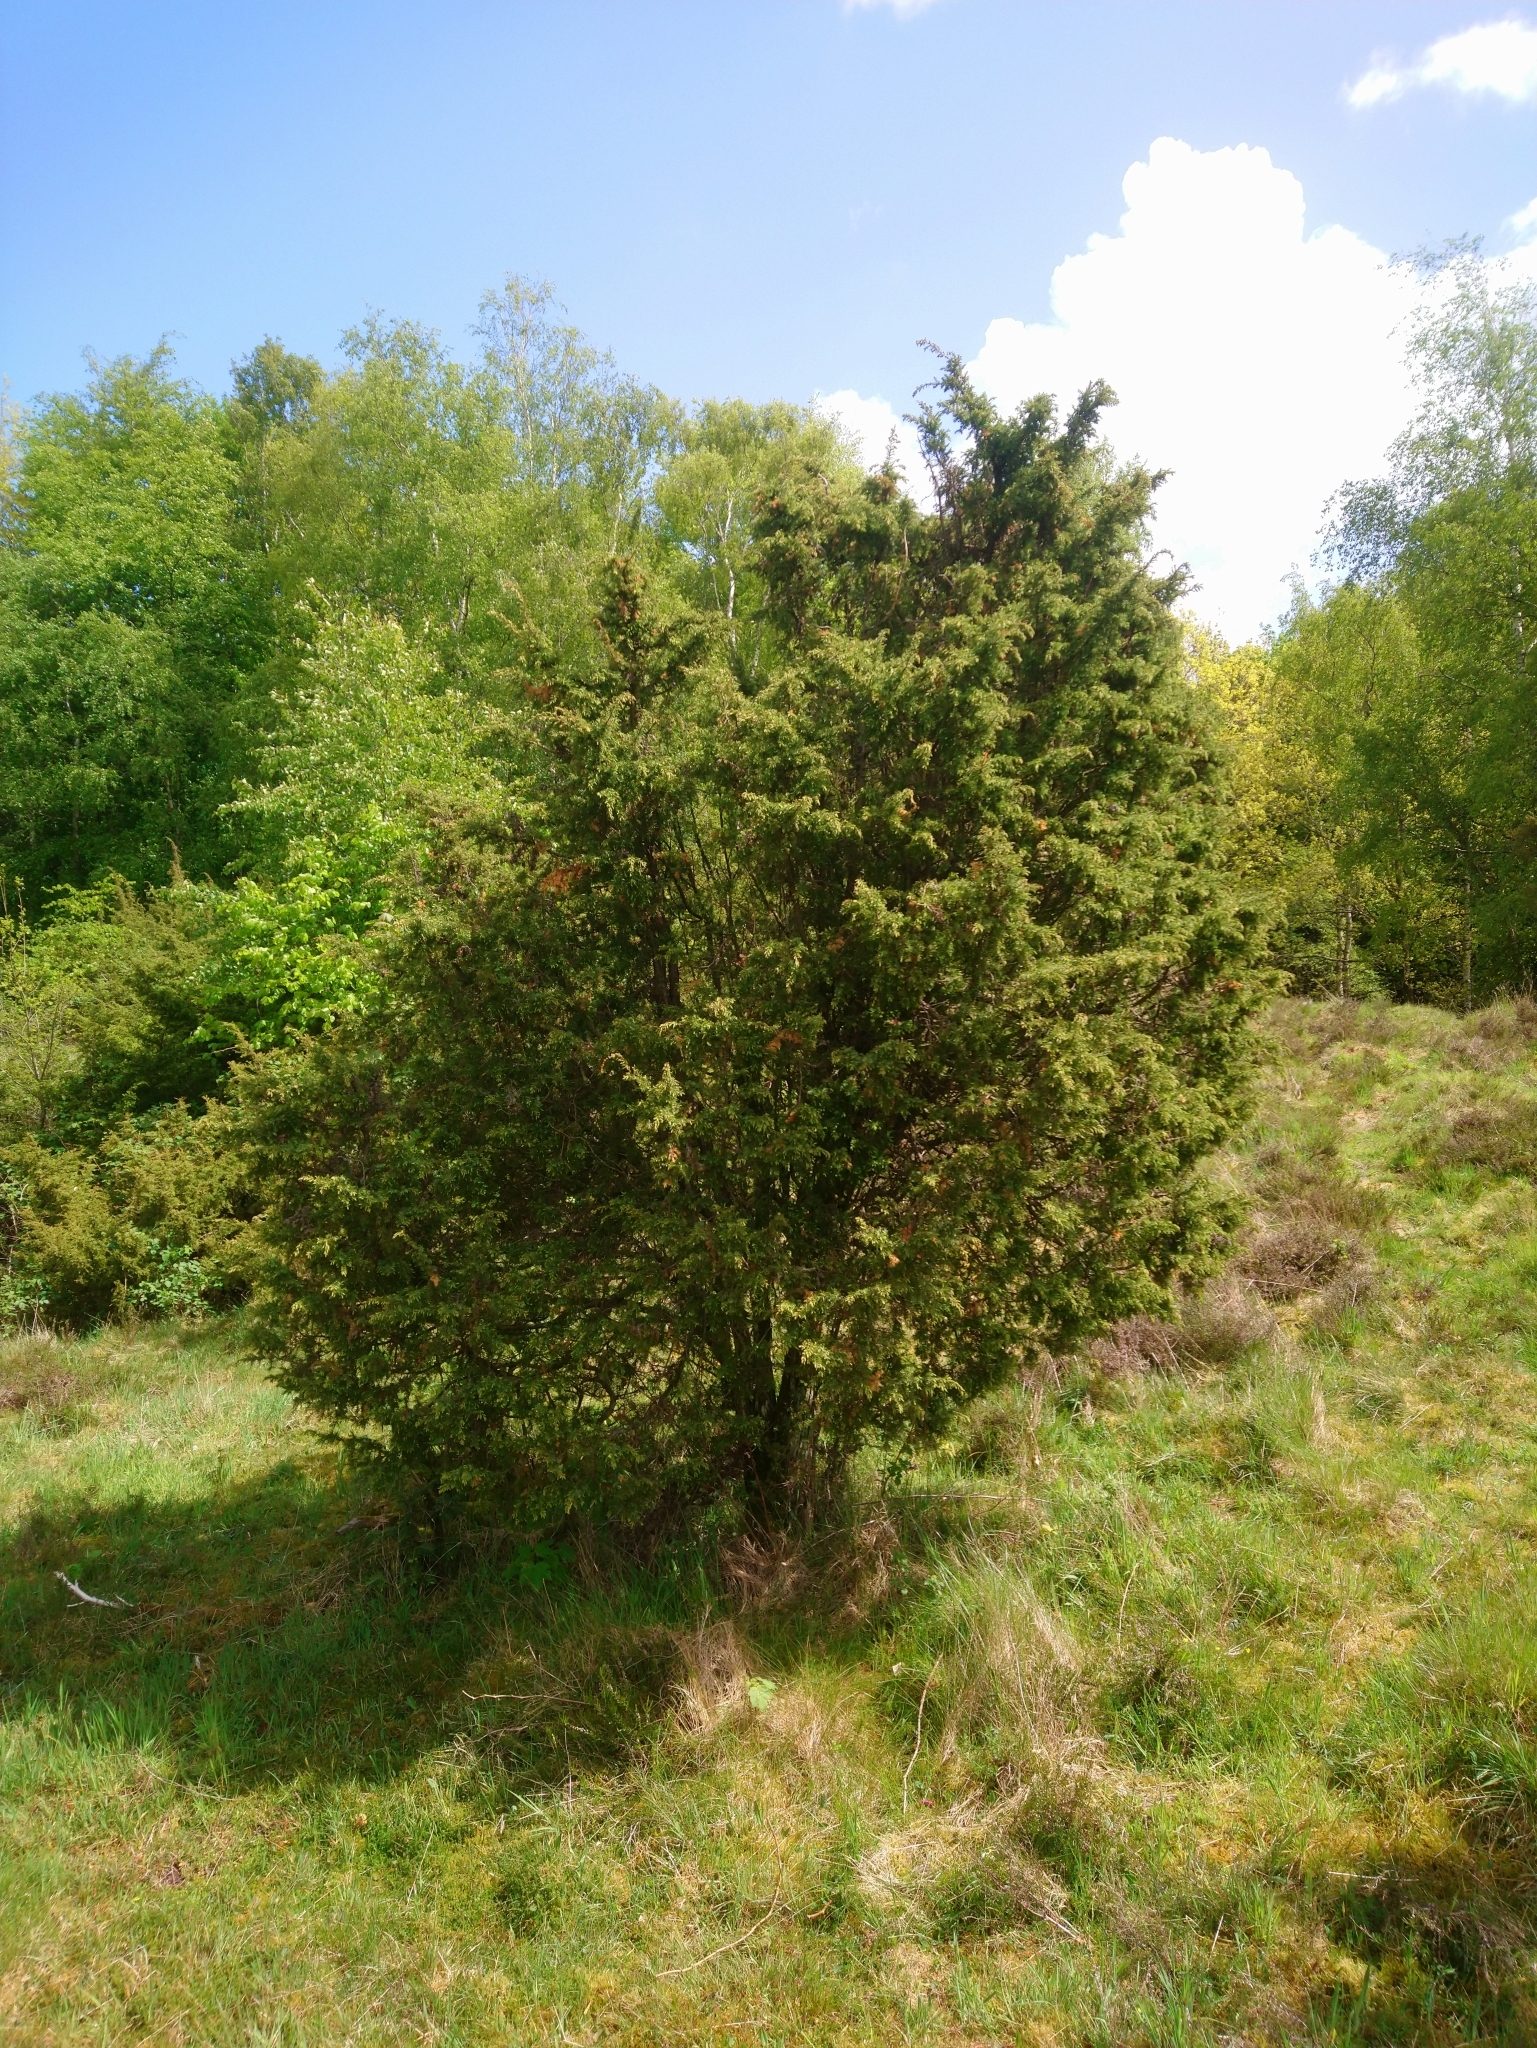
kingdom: Plantae
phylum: Tracheophyta
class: Pinopsida
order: Pinales
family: Cupressaceae
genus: Juniperus
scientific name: Juniperus communis
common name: Common juniper
